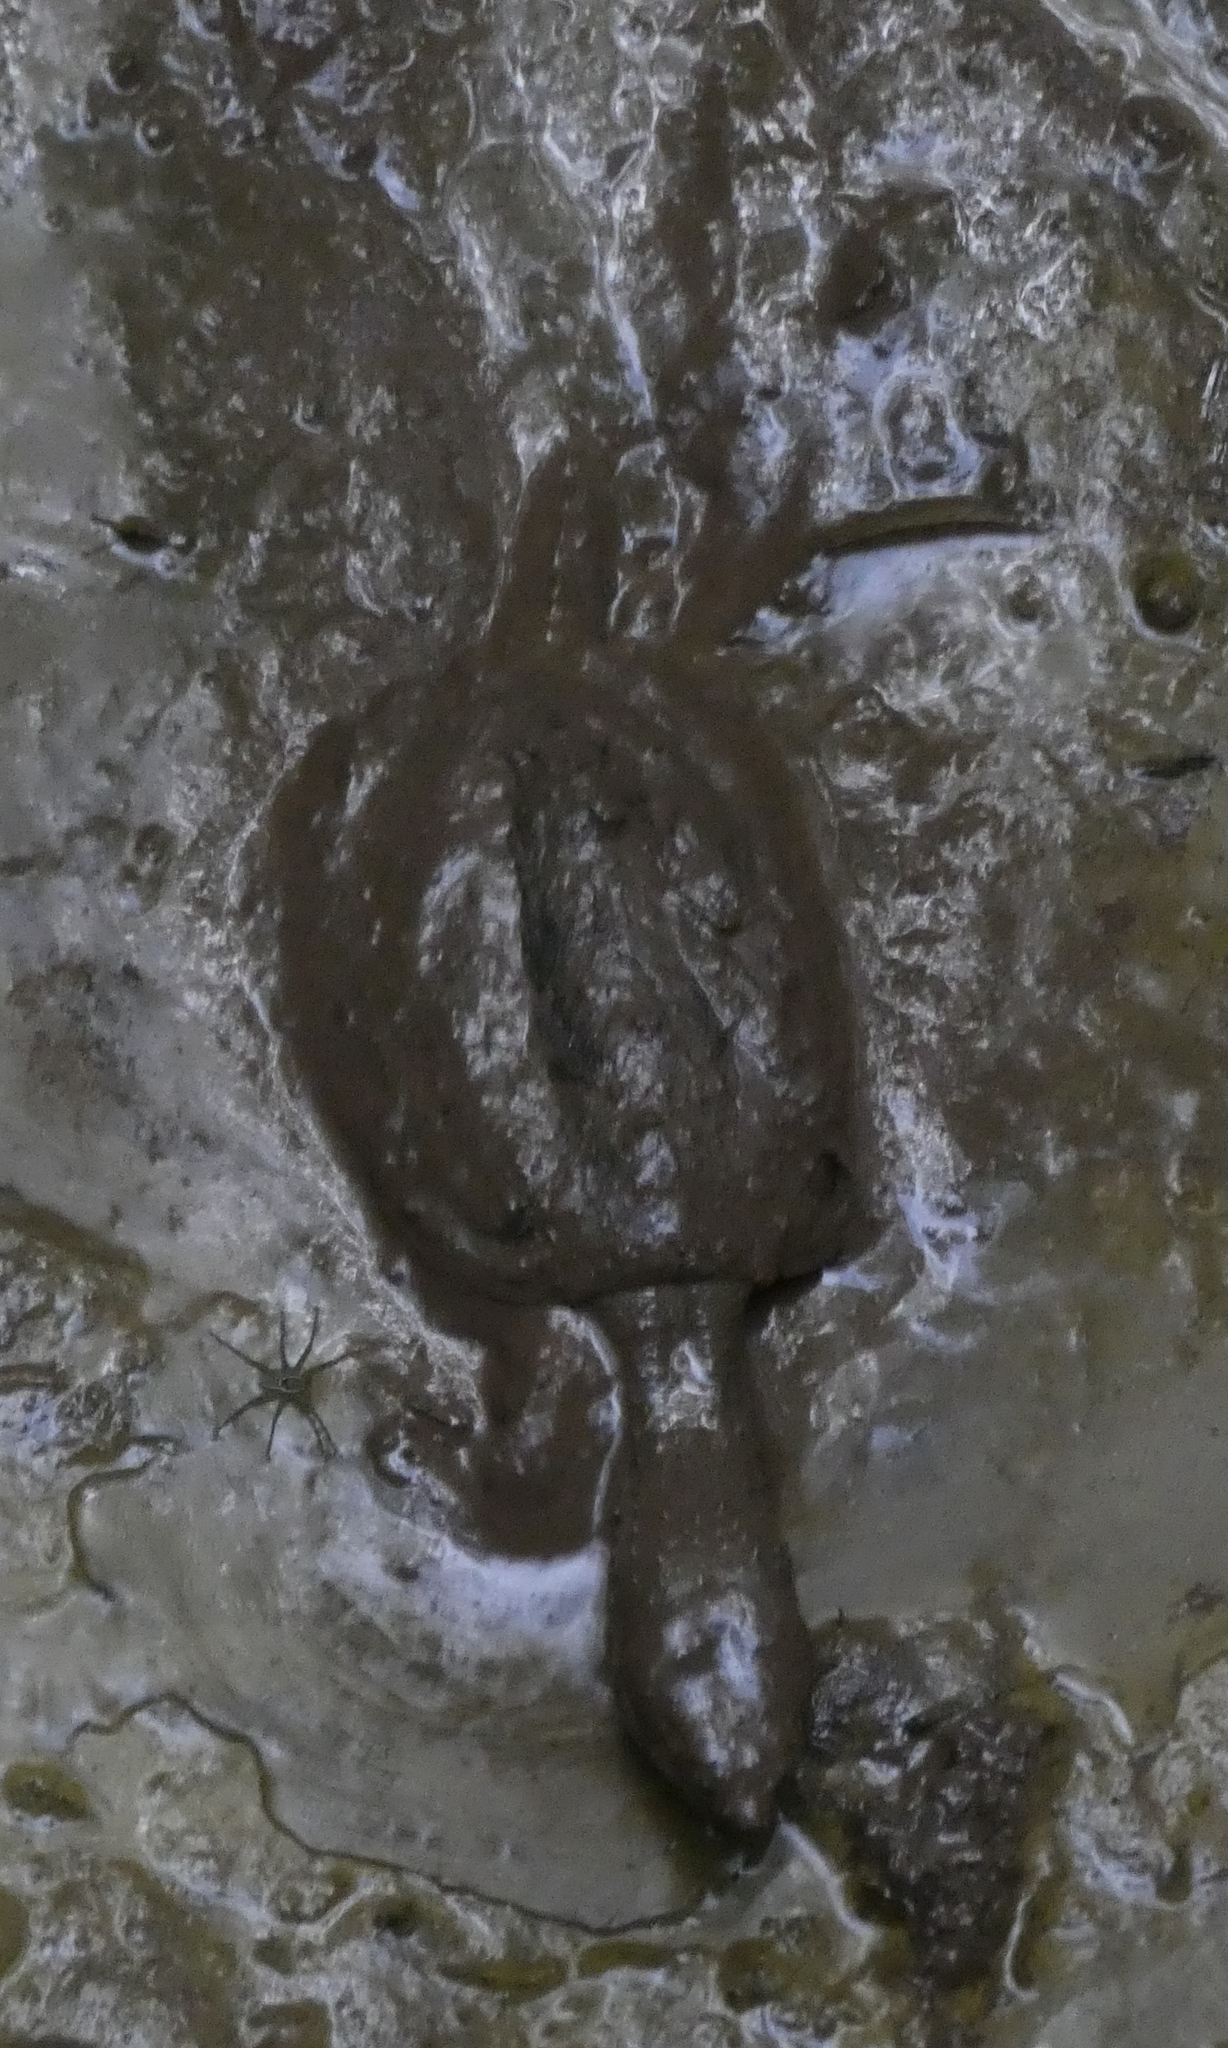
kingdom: Animalia
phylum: Chordata
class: Testudines
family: Chelydridae
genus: Chelydra
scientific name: Chelydra serpentina
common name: Common snapping turtle
